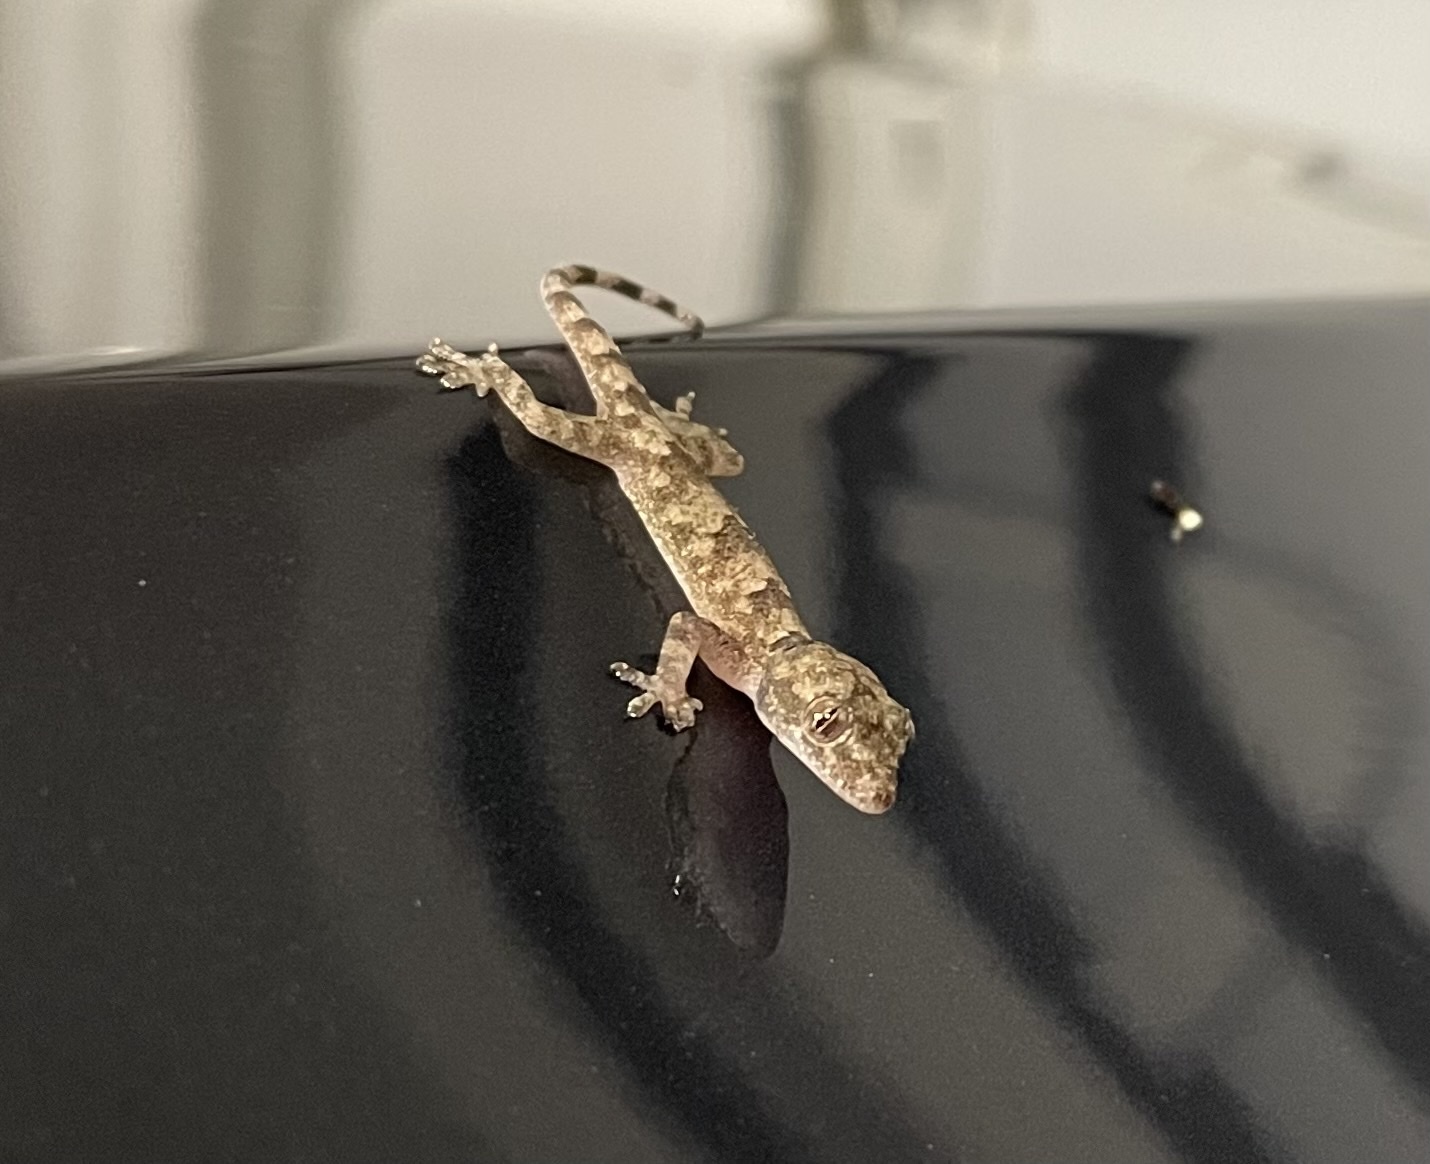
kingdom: Animalia
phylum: Chordata
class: Squamata
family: Gekkonidae
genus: Hemidactylus
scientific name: Hemidactylus mabouia
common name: House gecko
